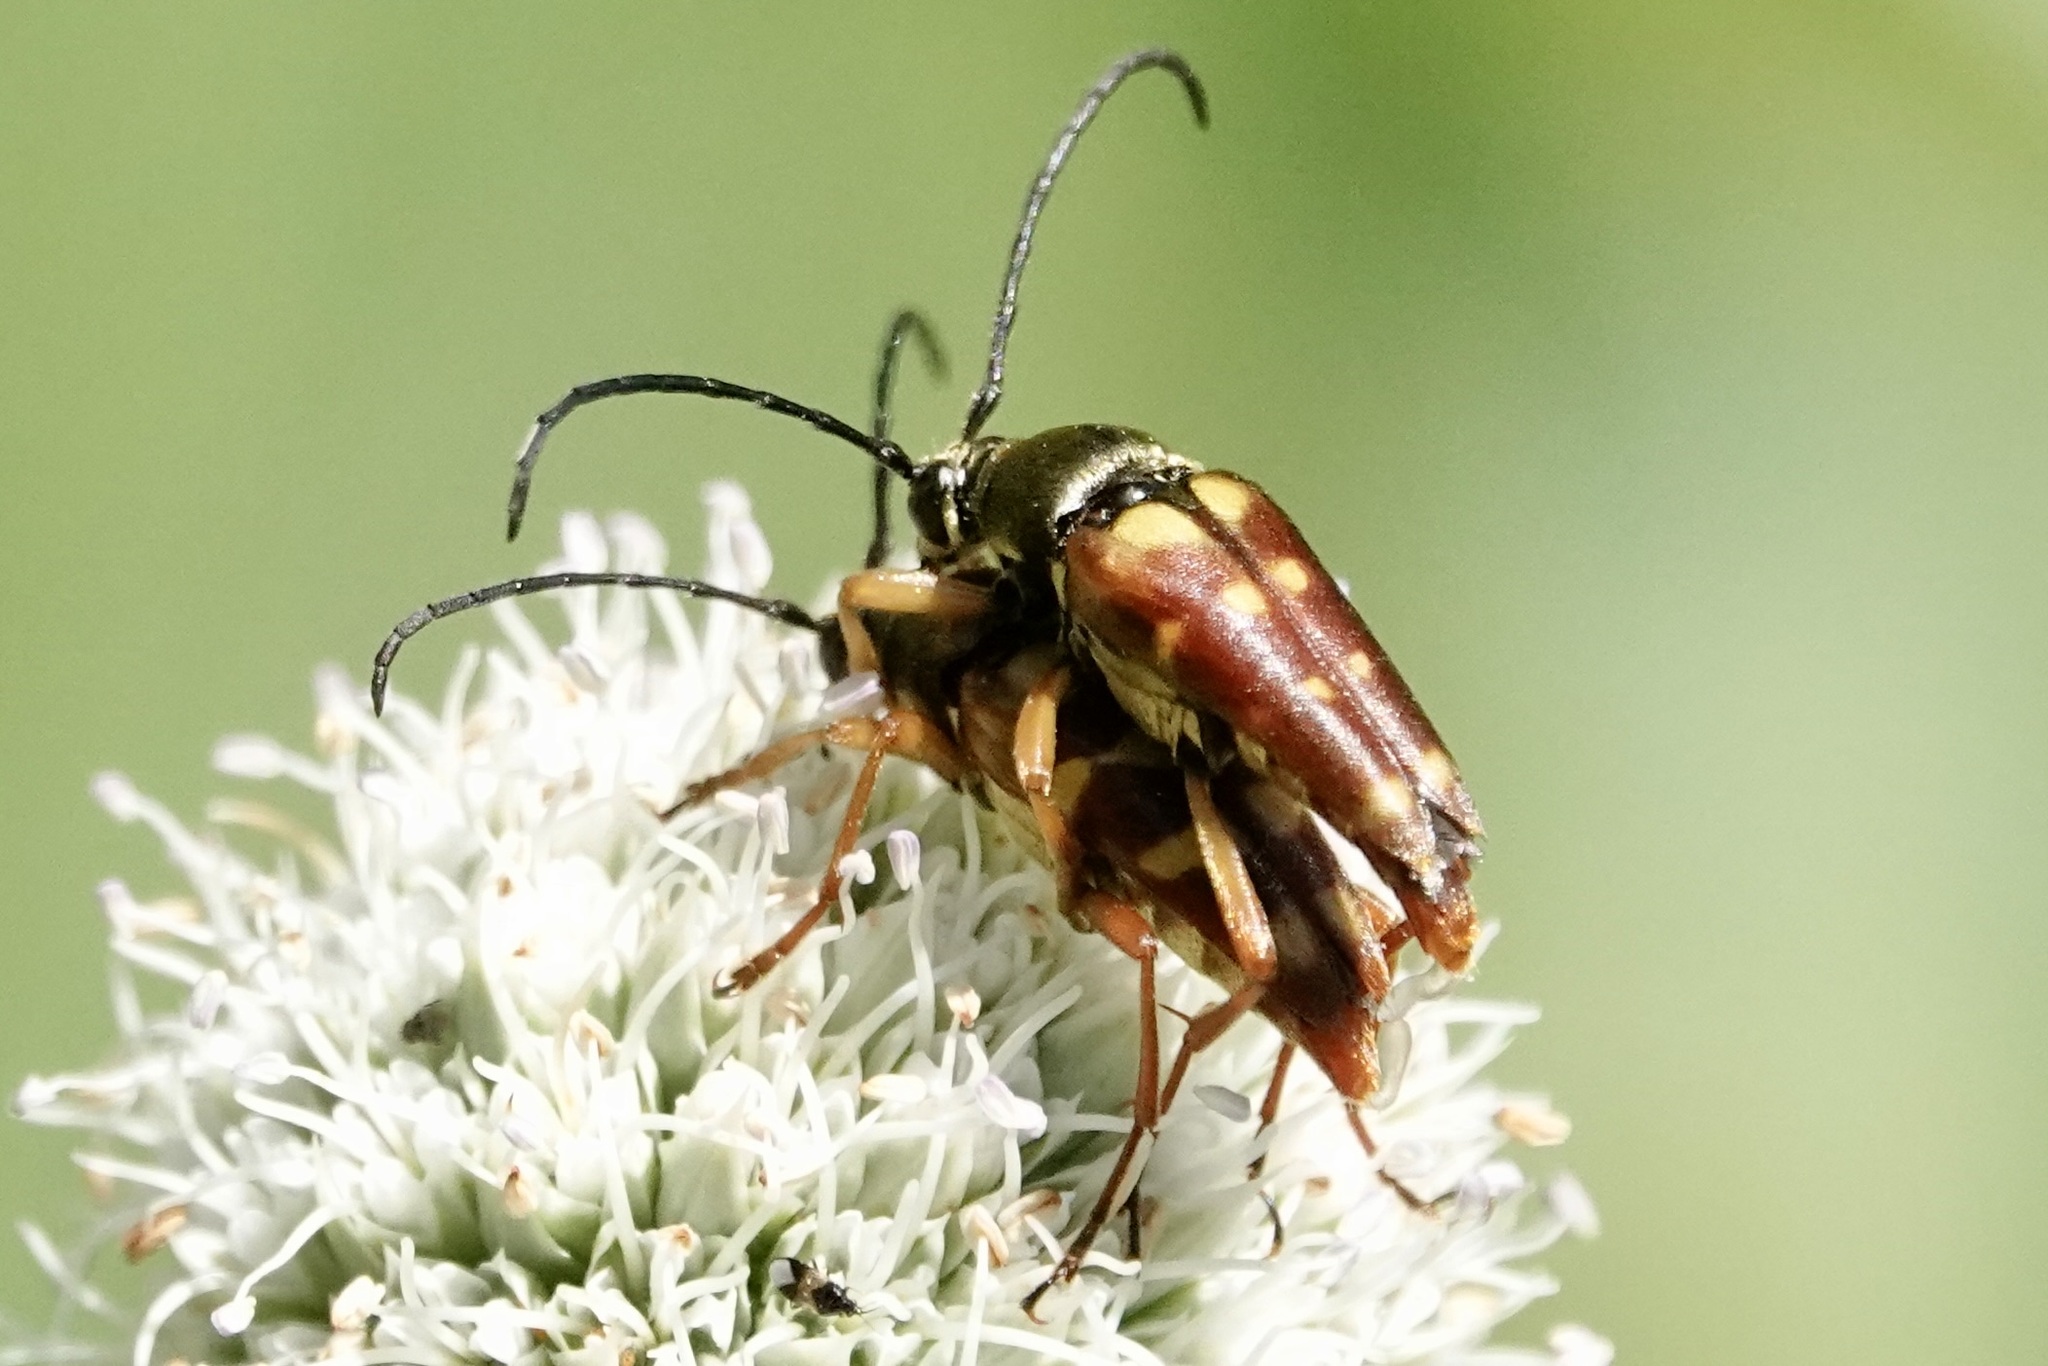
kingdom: Animalia
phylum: Arthropoda
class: Insecta
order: Coleoptera
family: Cerambycidae
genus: Typocerus
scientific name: Typocerus velutinus
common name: Banded longhorn beetle
